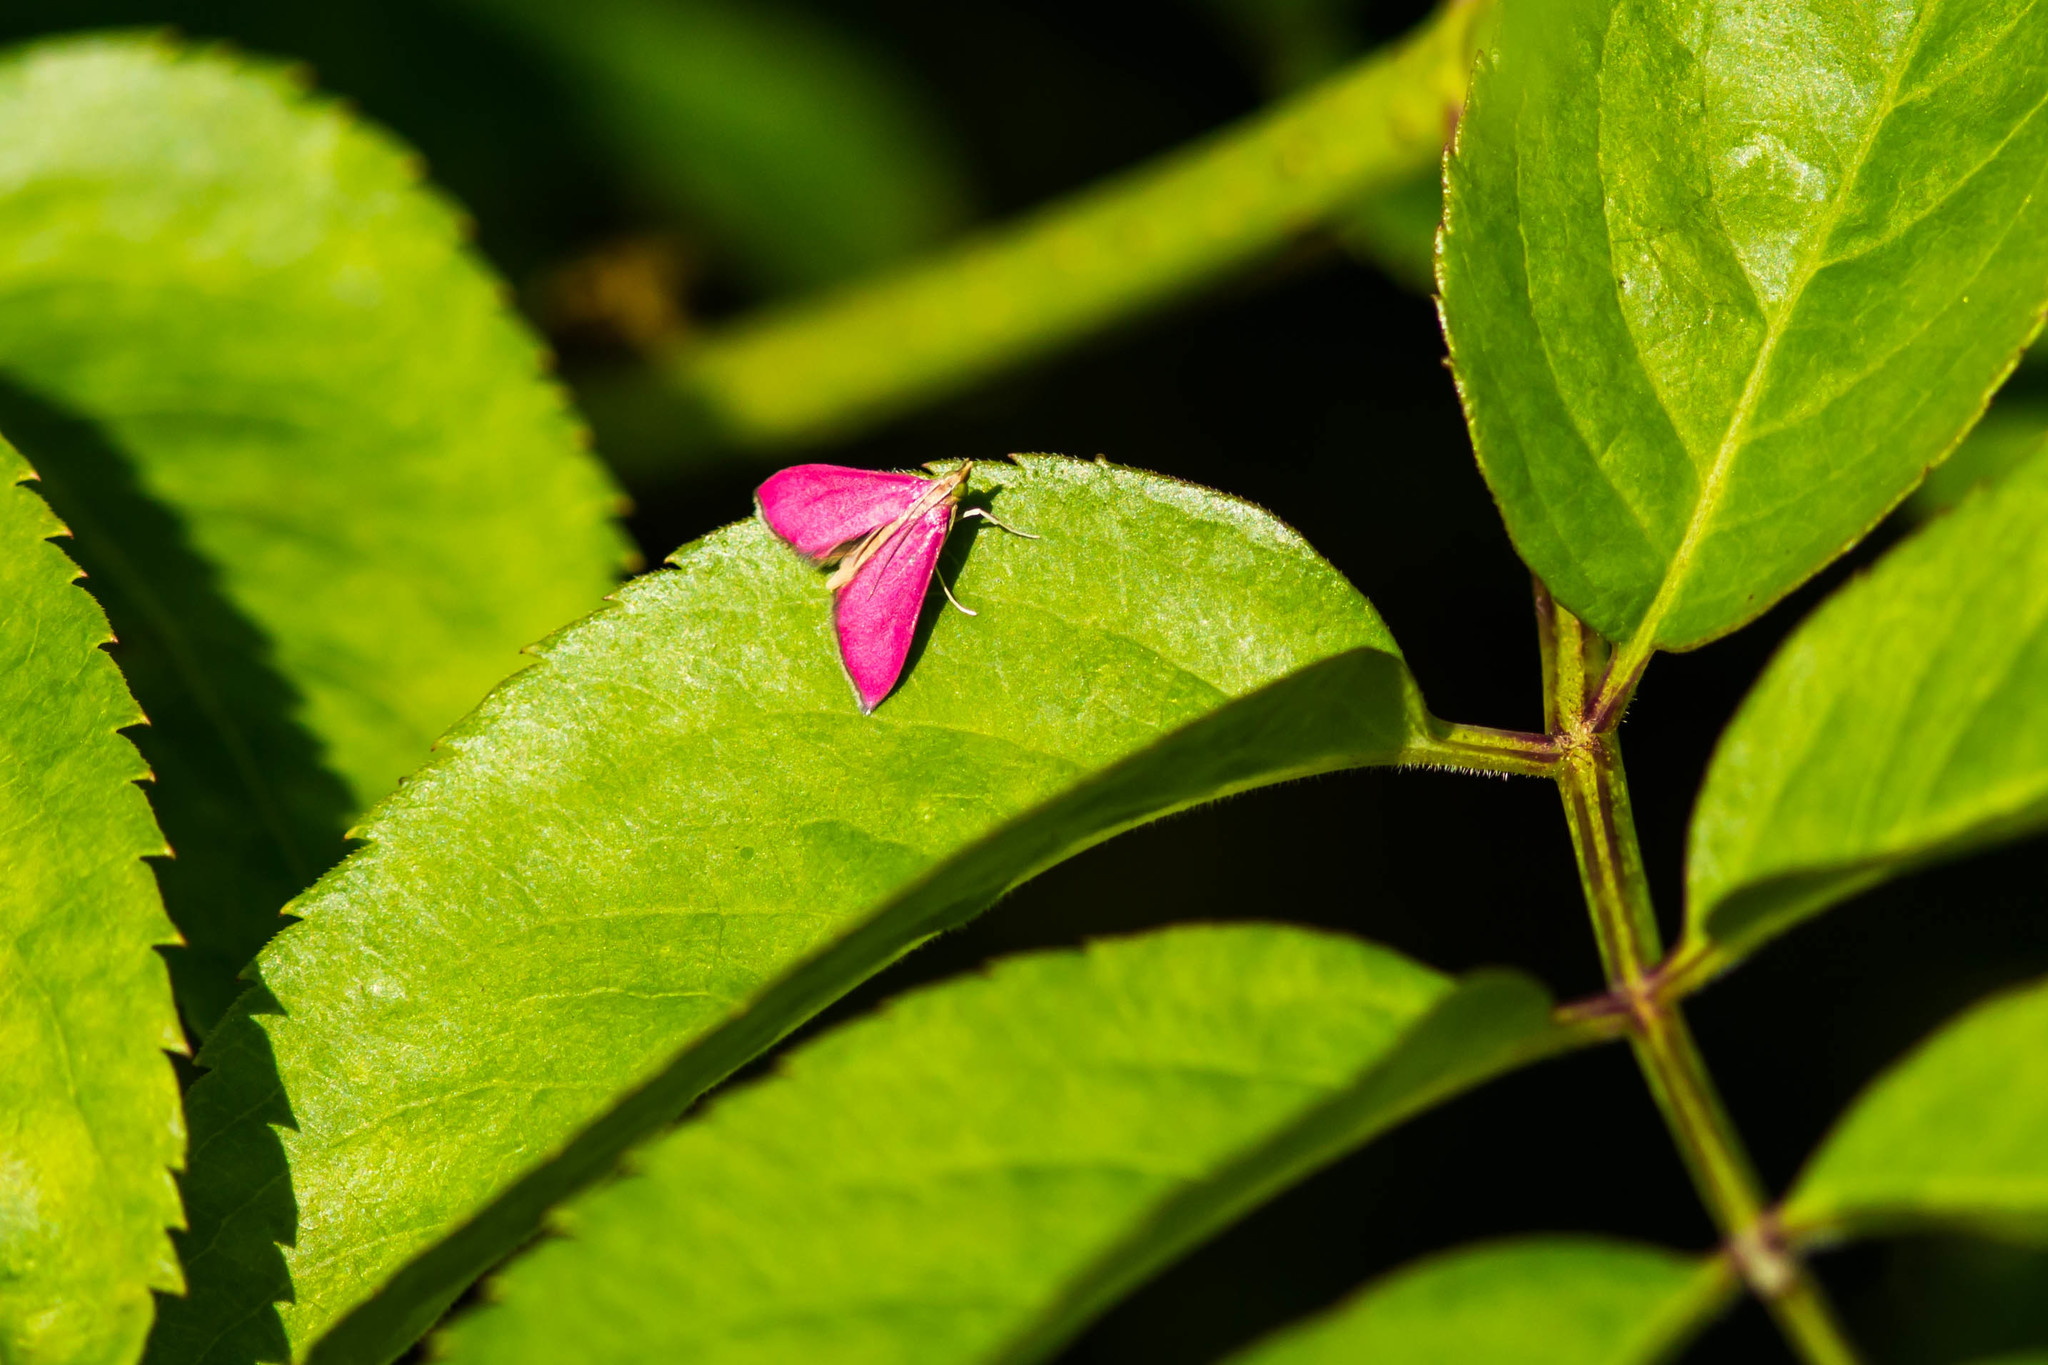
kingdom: Animalia
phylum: Arthropoda
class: Insecta
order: Lepidoptera
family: Crambidae
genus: Pyrausta
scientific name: Pyrausta inornatalis
